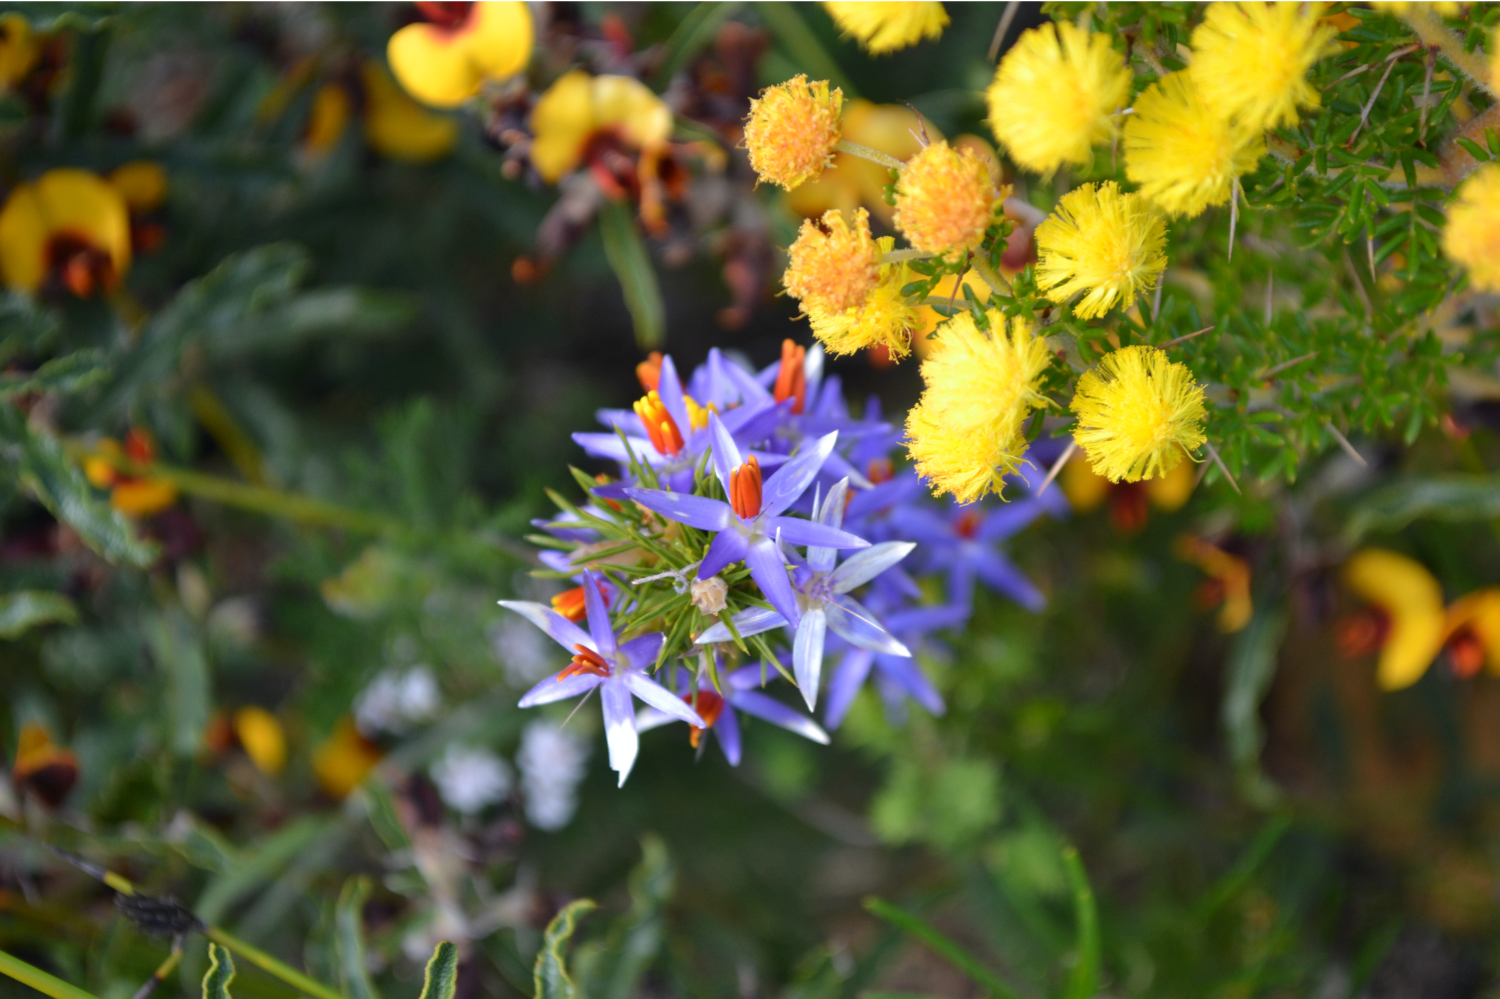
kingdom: Plantae
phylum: Tracheophyta
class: Liliopsida
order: Arecales
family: Dasypogonaceae
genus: Calectasia
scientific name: Calectasia narragara
